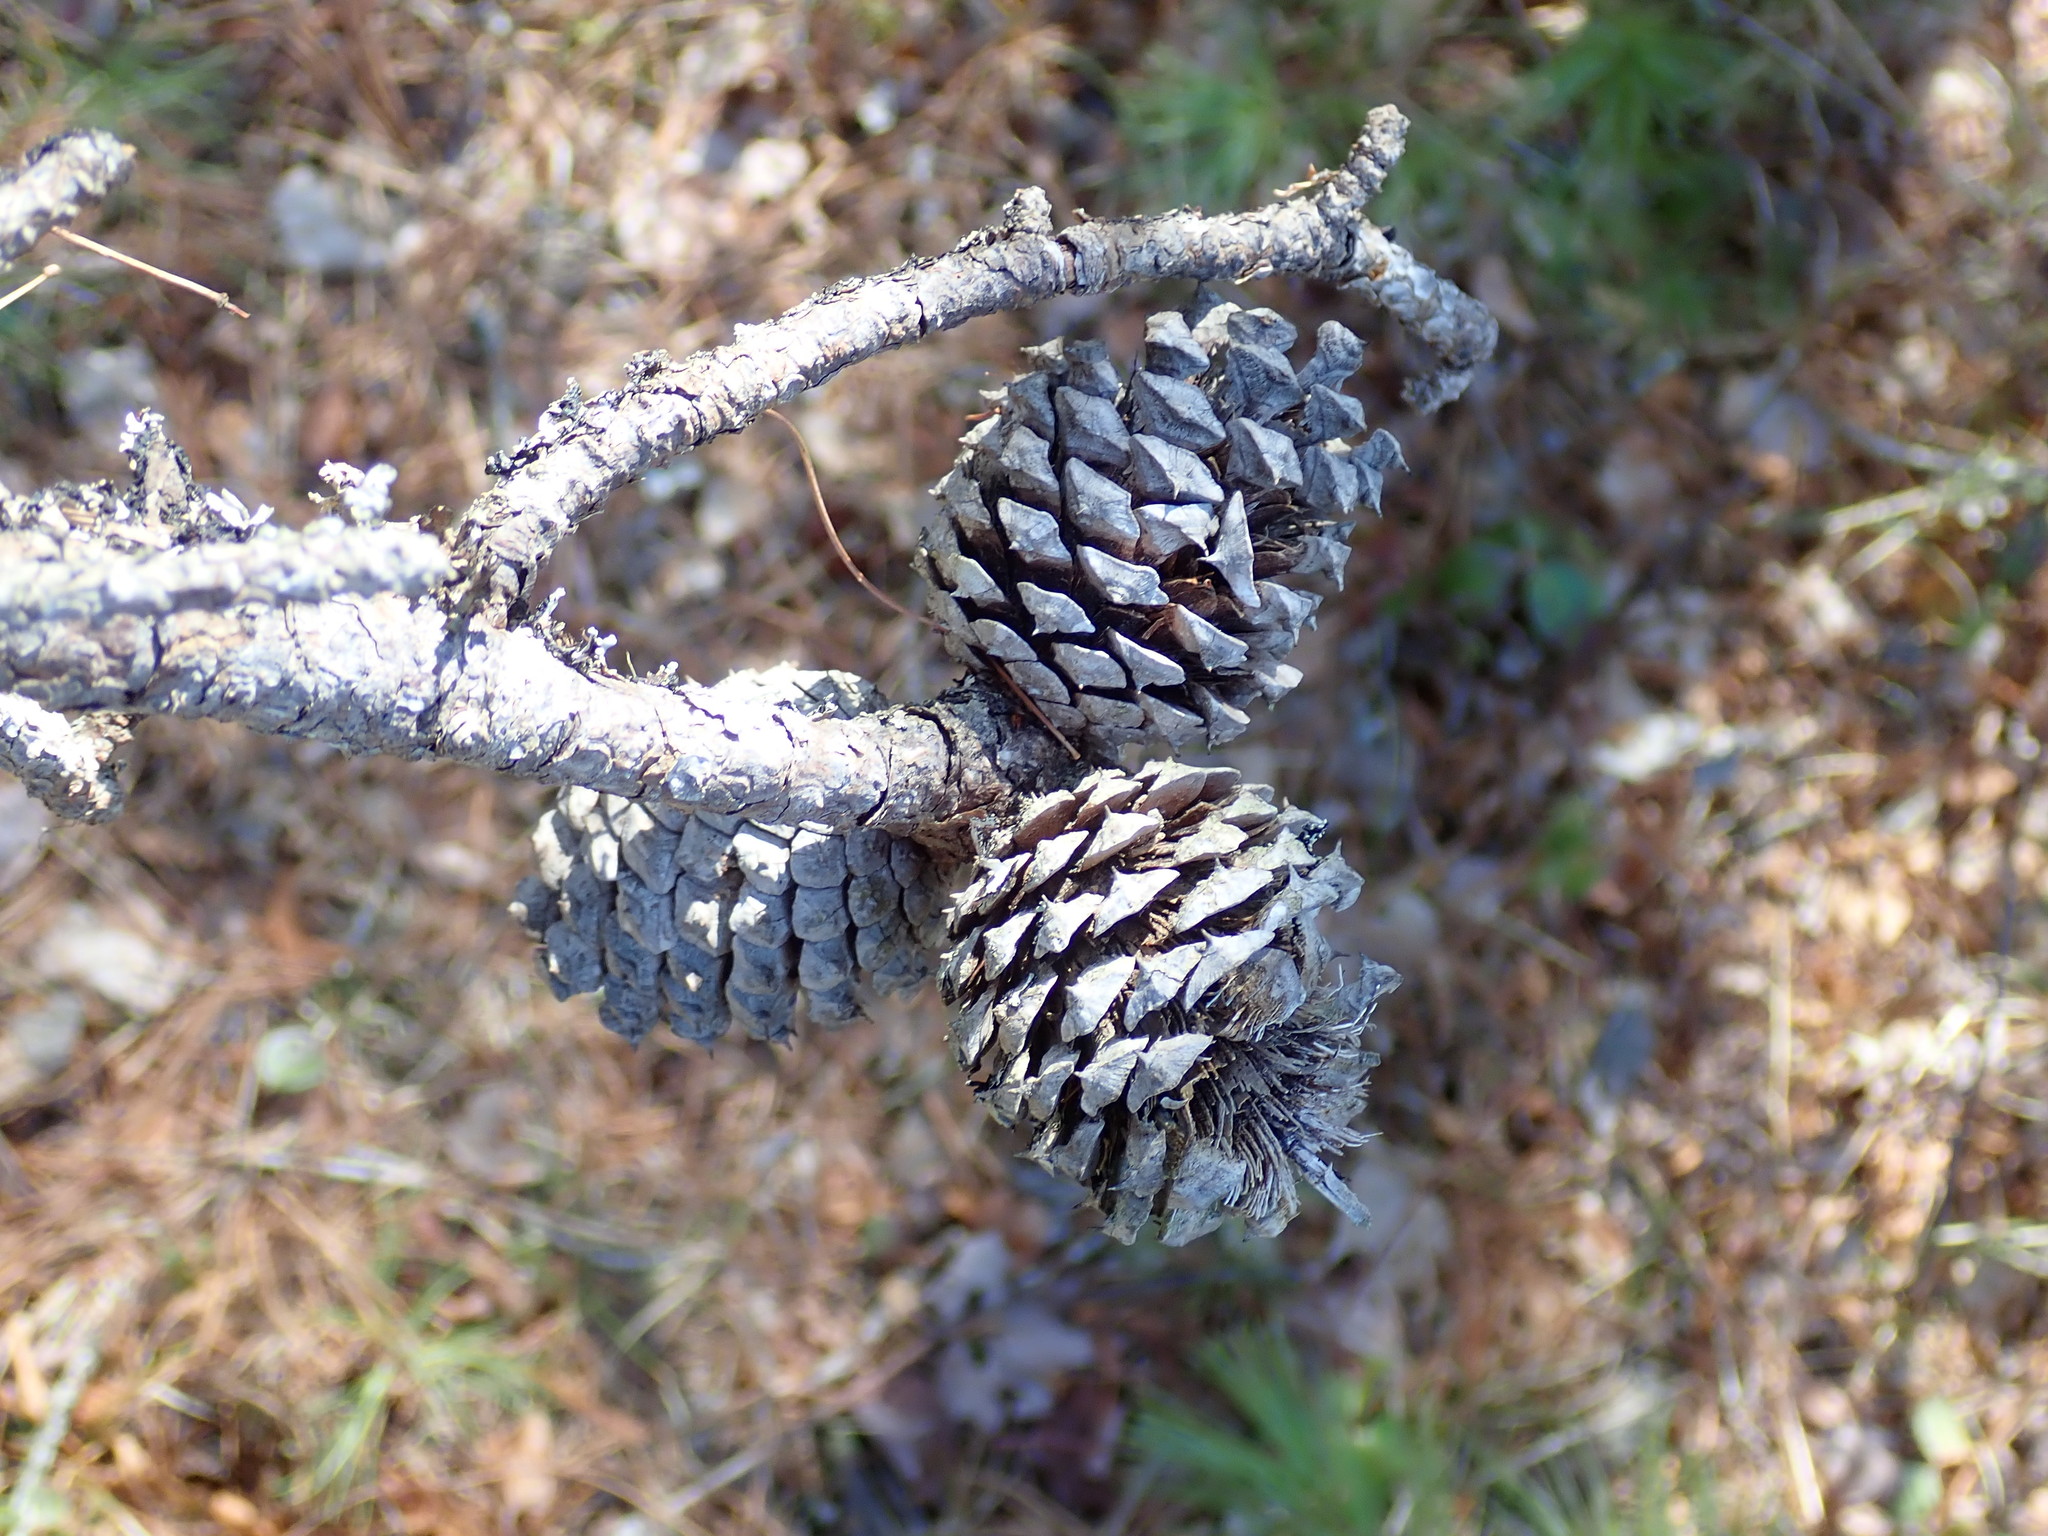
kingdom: Plantae
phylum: Tracheophyta
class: Pinopsida
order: Pinales
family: Pinaceae
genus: Pinus
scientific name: Pinus rigida
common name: Pitch pine
